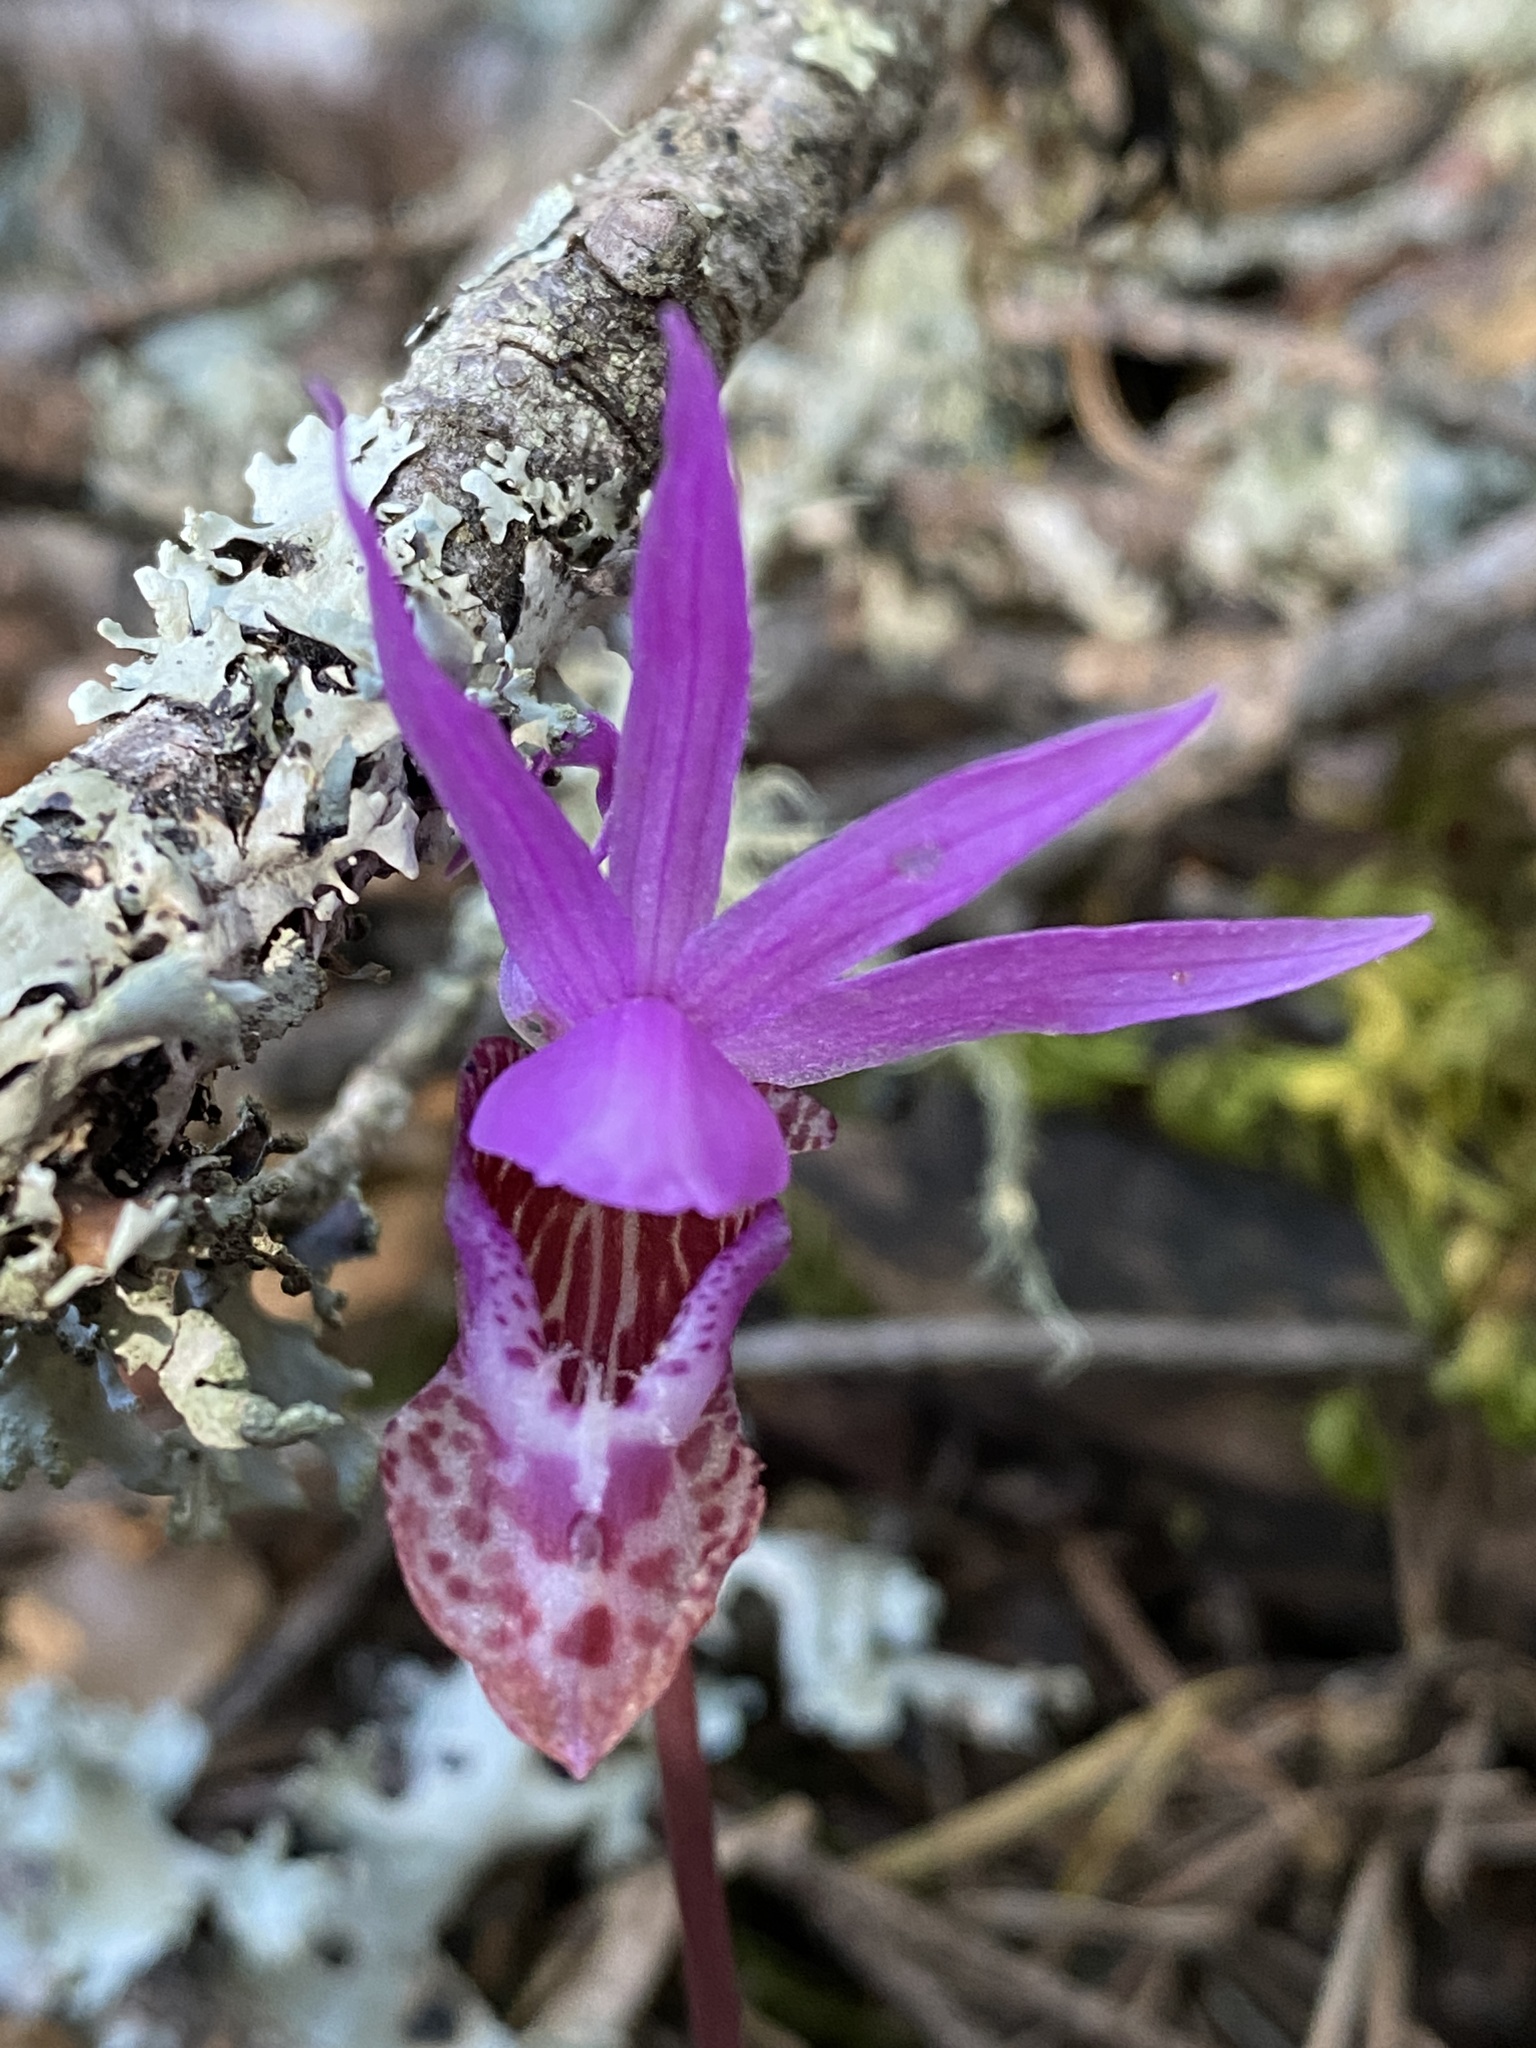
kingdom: Plantae
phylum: Tracheophyta
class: Liliopsida
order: Asparagales
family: Orchidaceae
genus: Calypso
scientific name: Calypso bulbosa
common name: Calypso
